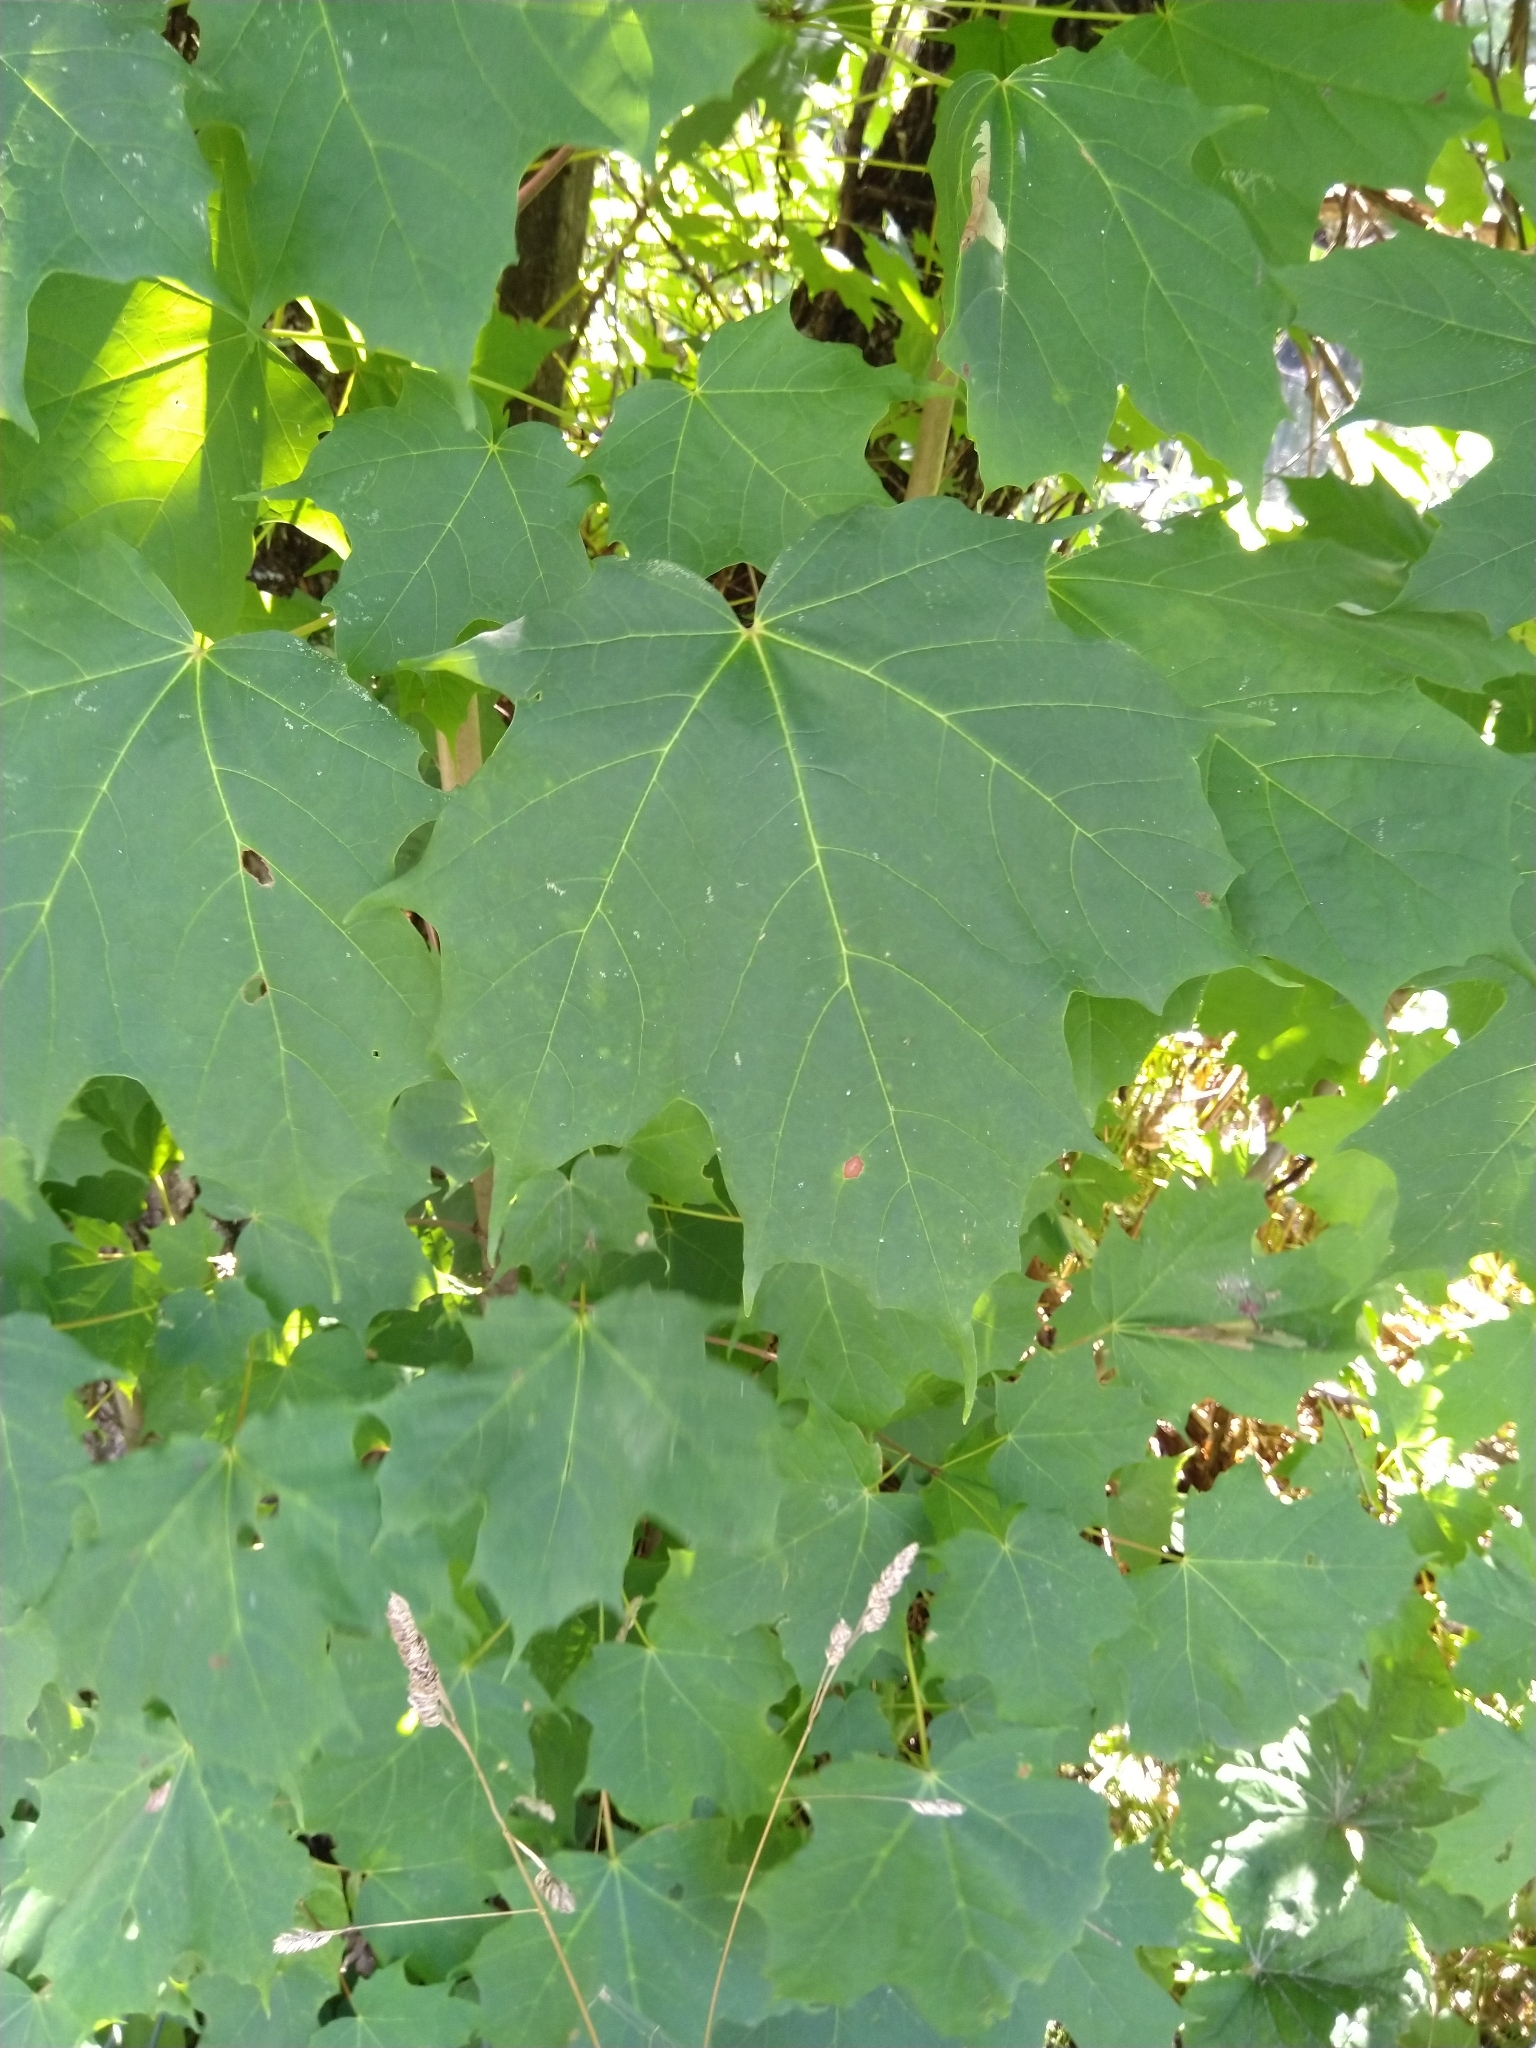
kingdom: Plantae
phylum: Tracheophyta
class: Magnoliopsida
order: Sapindales
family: Sapindaceae
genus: Acer
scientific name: Acer saccharum
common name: Sugar maple
